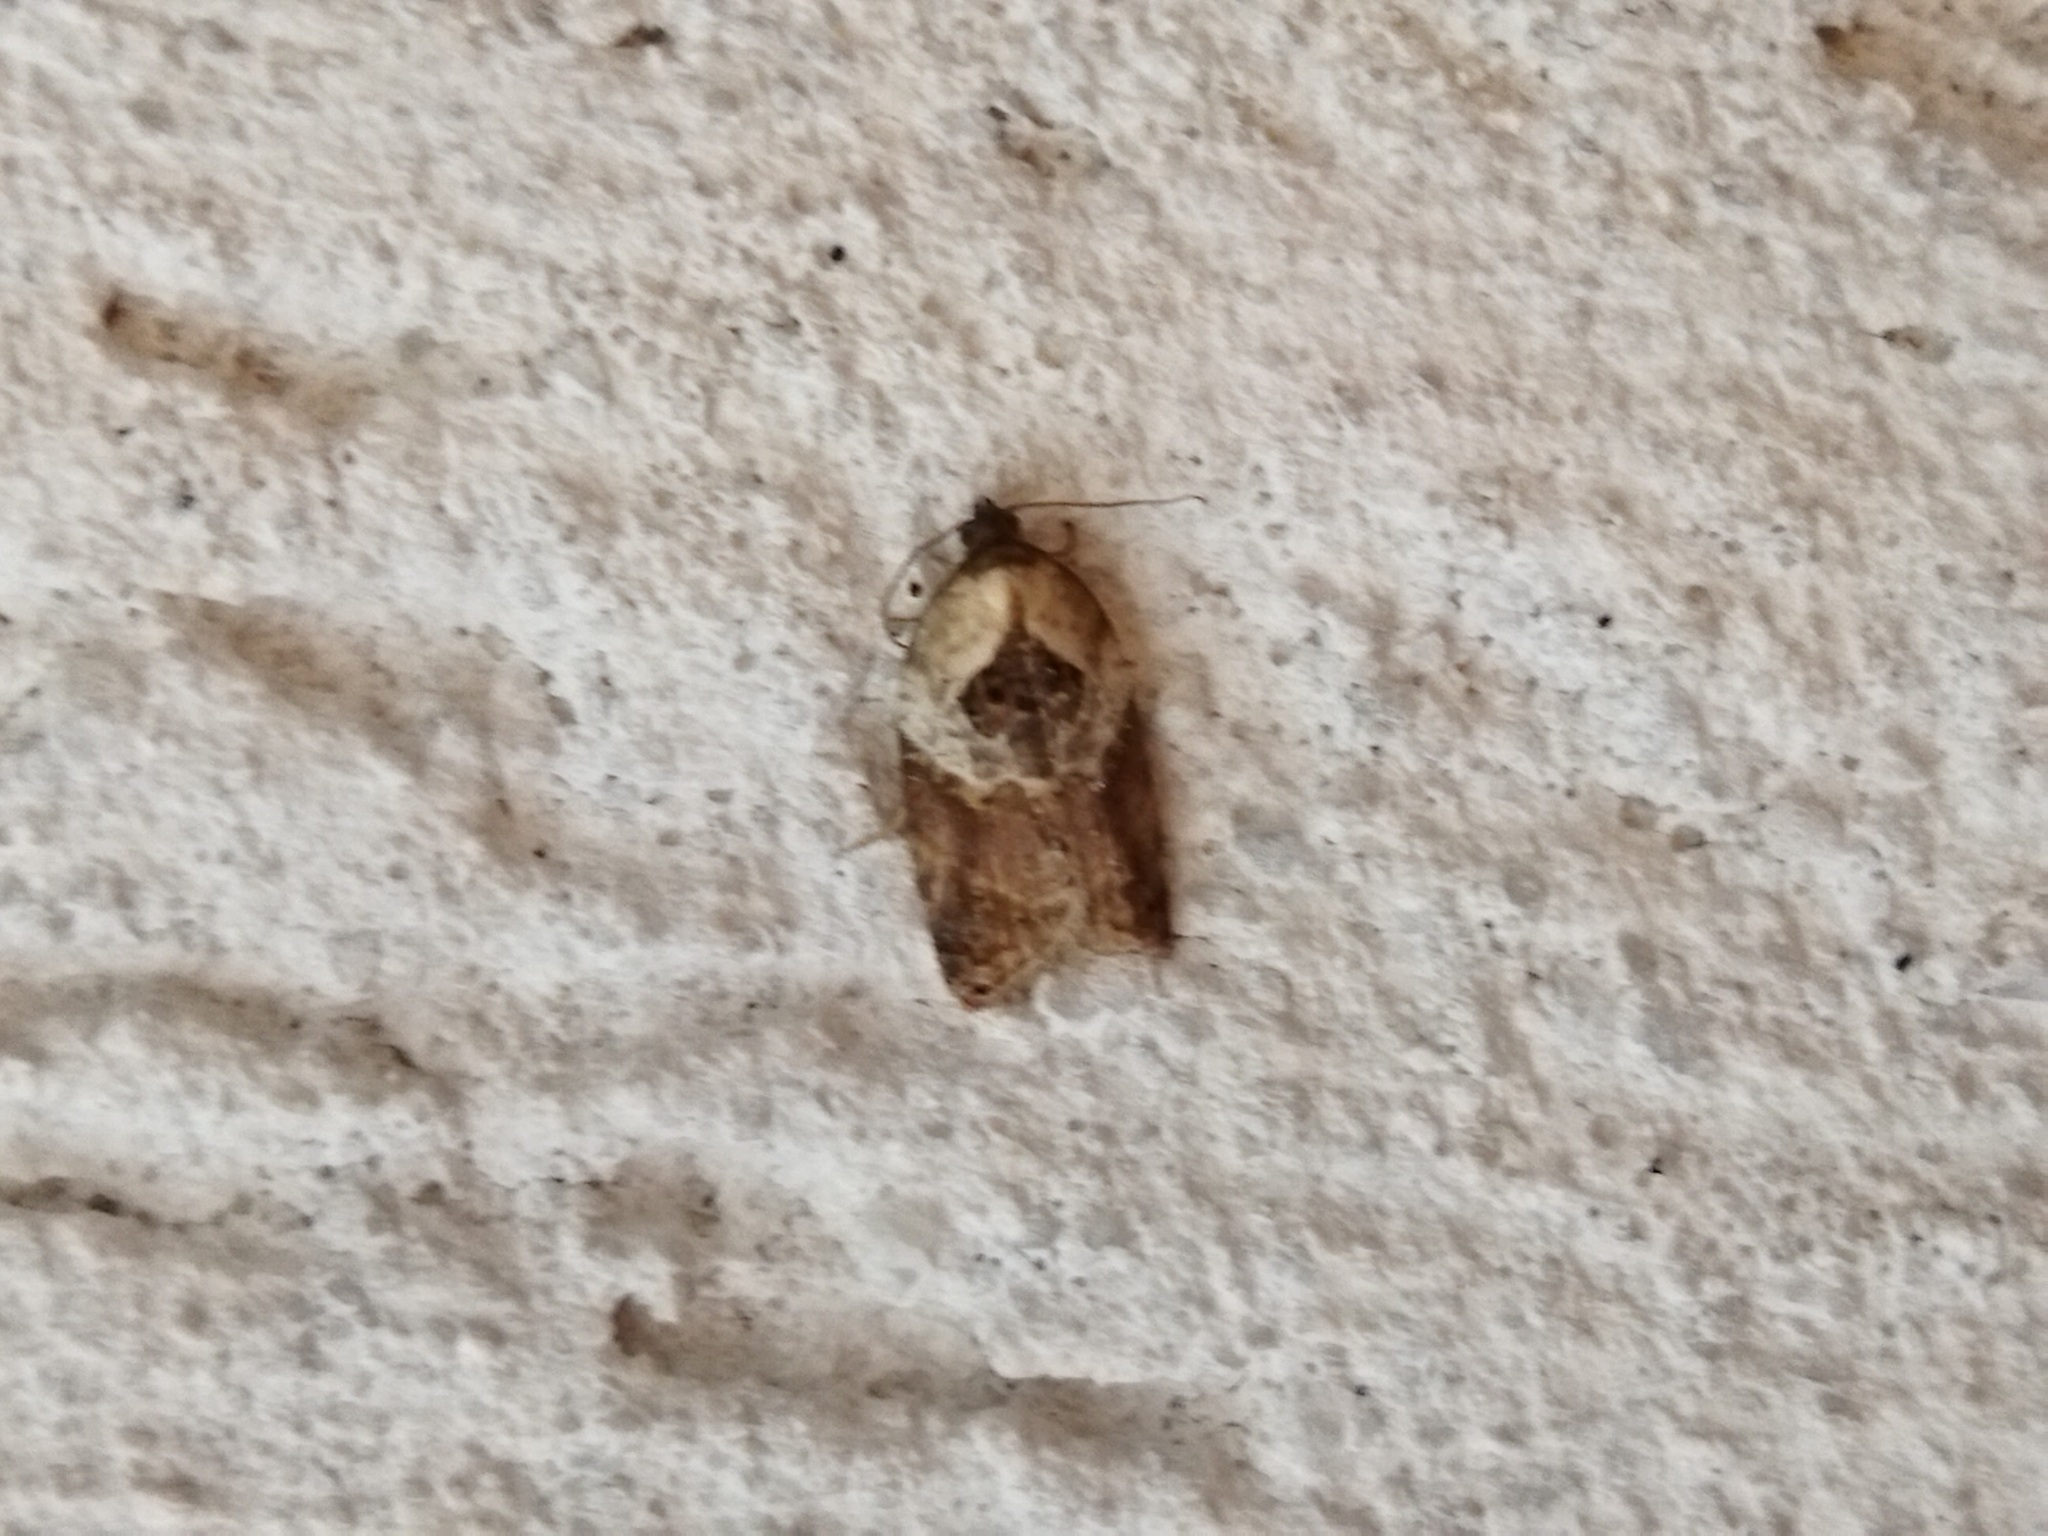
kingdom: Animalia
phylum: Arthropoda
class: Insecta
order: Lepidoptera
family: Tortricidae
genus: Acleris
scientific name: Acleris variegana
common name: Garden rose tortrix
